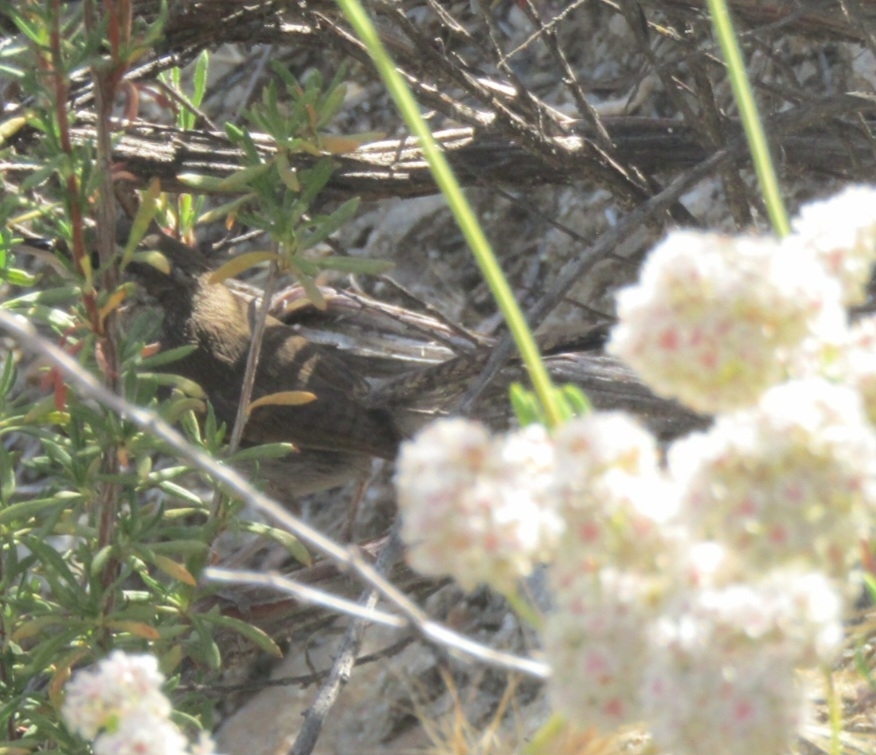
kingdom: Animalia
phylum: Chordata
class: Aves
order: Passeriformes
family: Troglodytidae
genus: Thryomanes
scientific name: Thryomanes bewickii
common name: Bewick's wren
